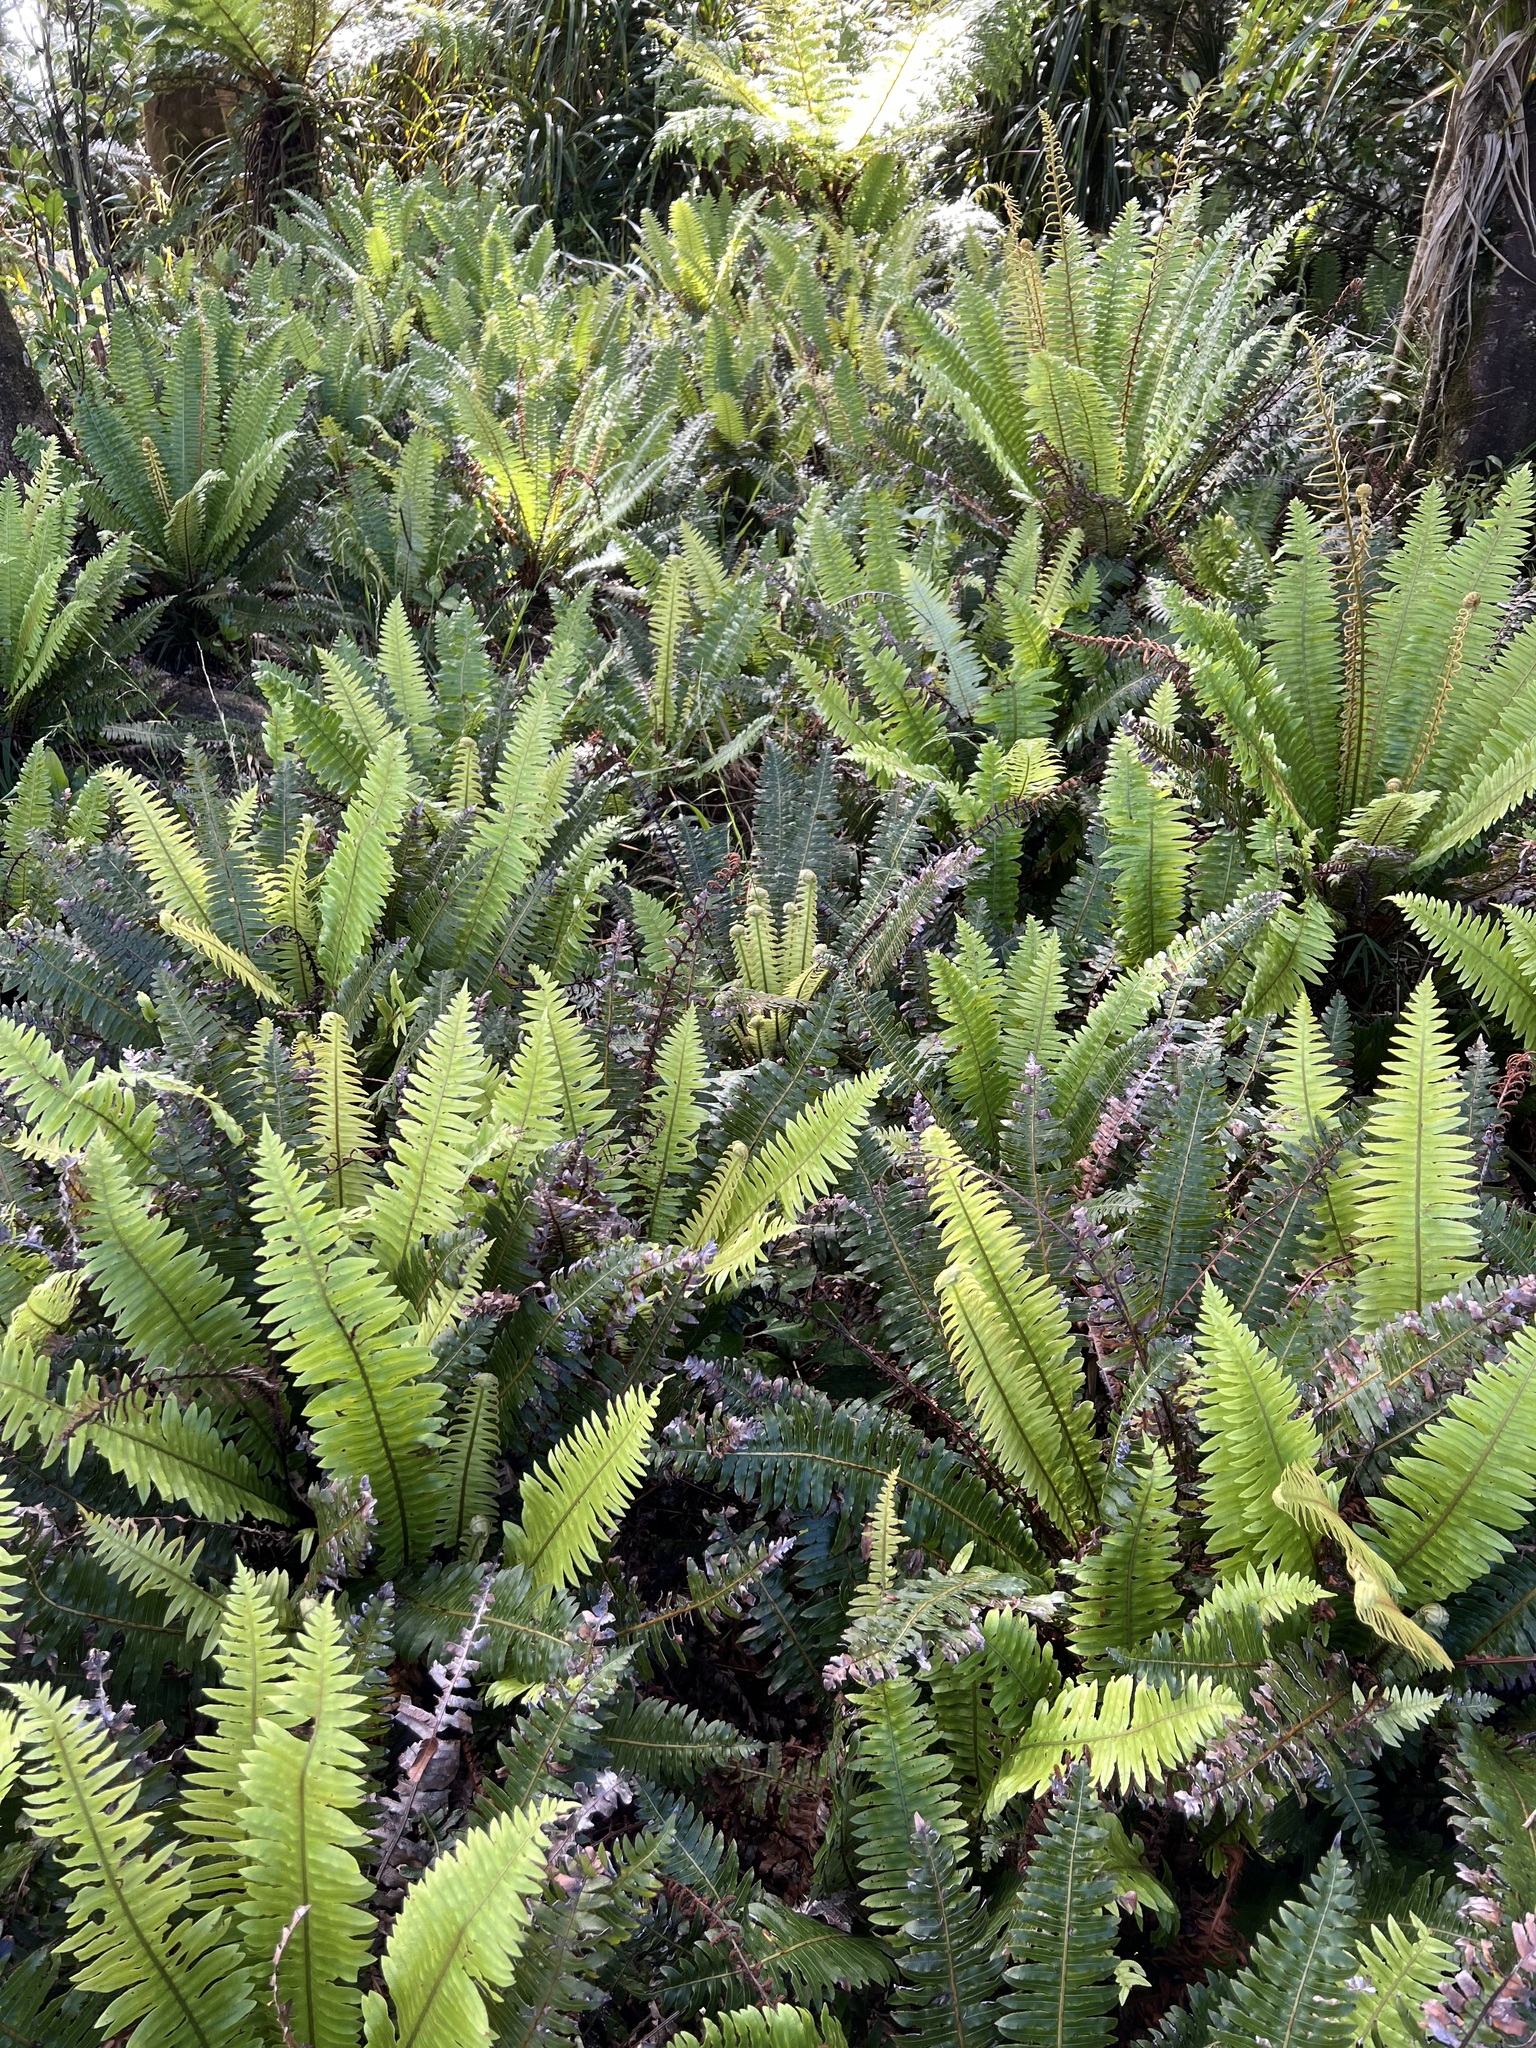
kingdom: Plantae
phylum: Tracheophyta
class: Polypodiopsida
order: Polypodiales
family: Blechnaceae
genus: Lomaria
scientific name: Lomaria discolor
